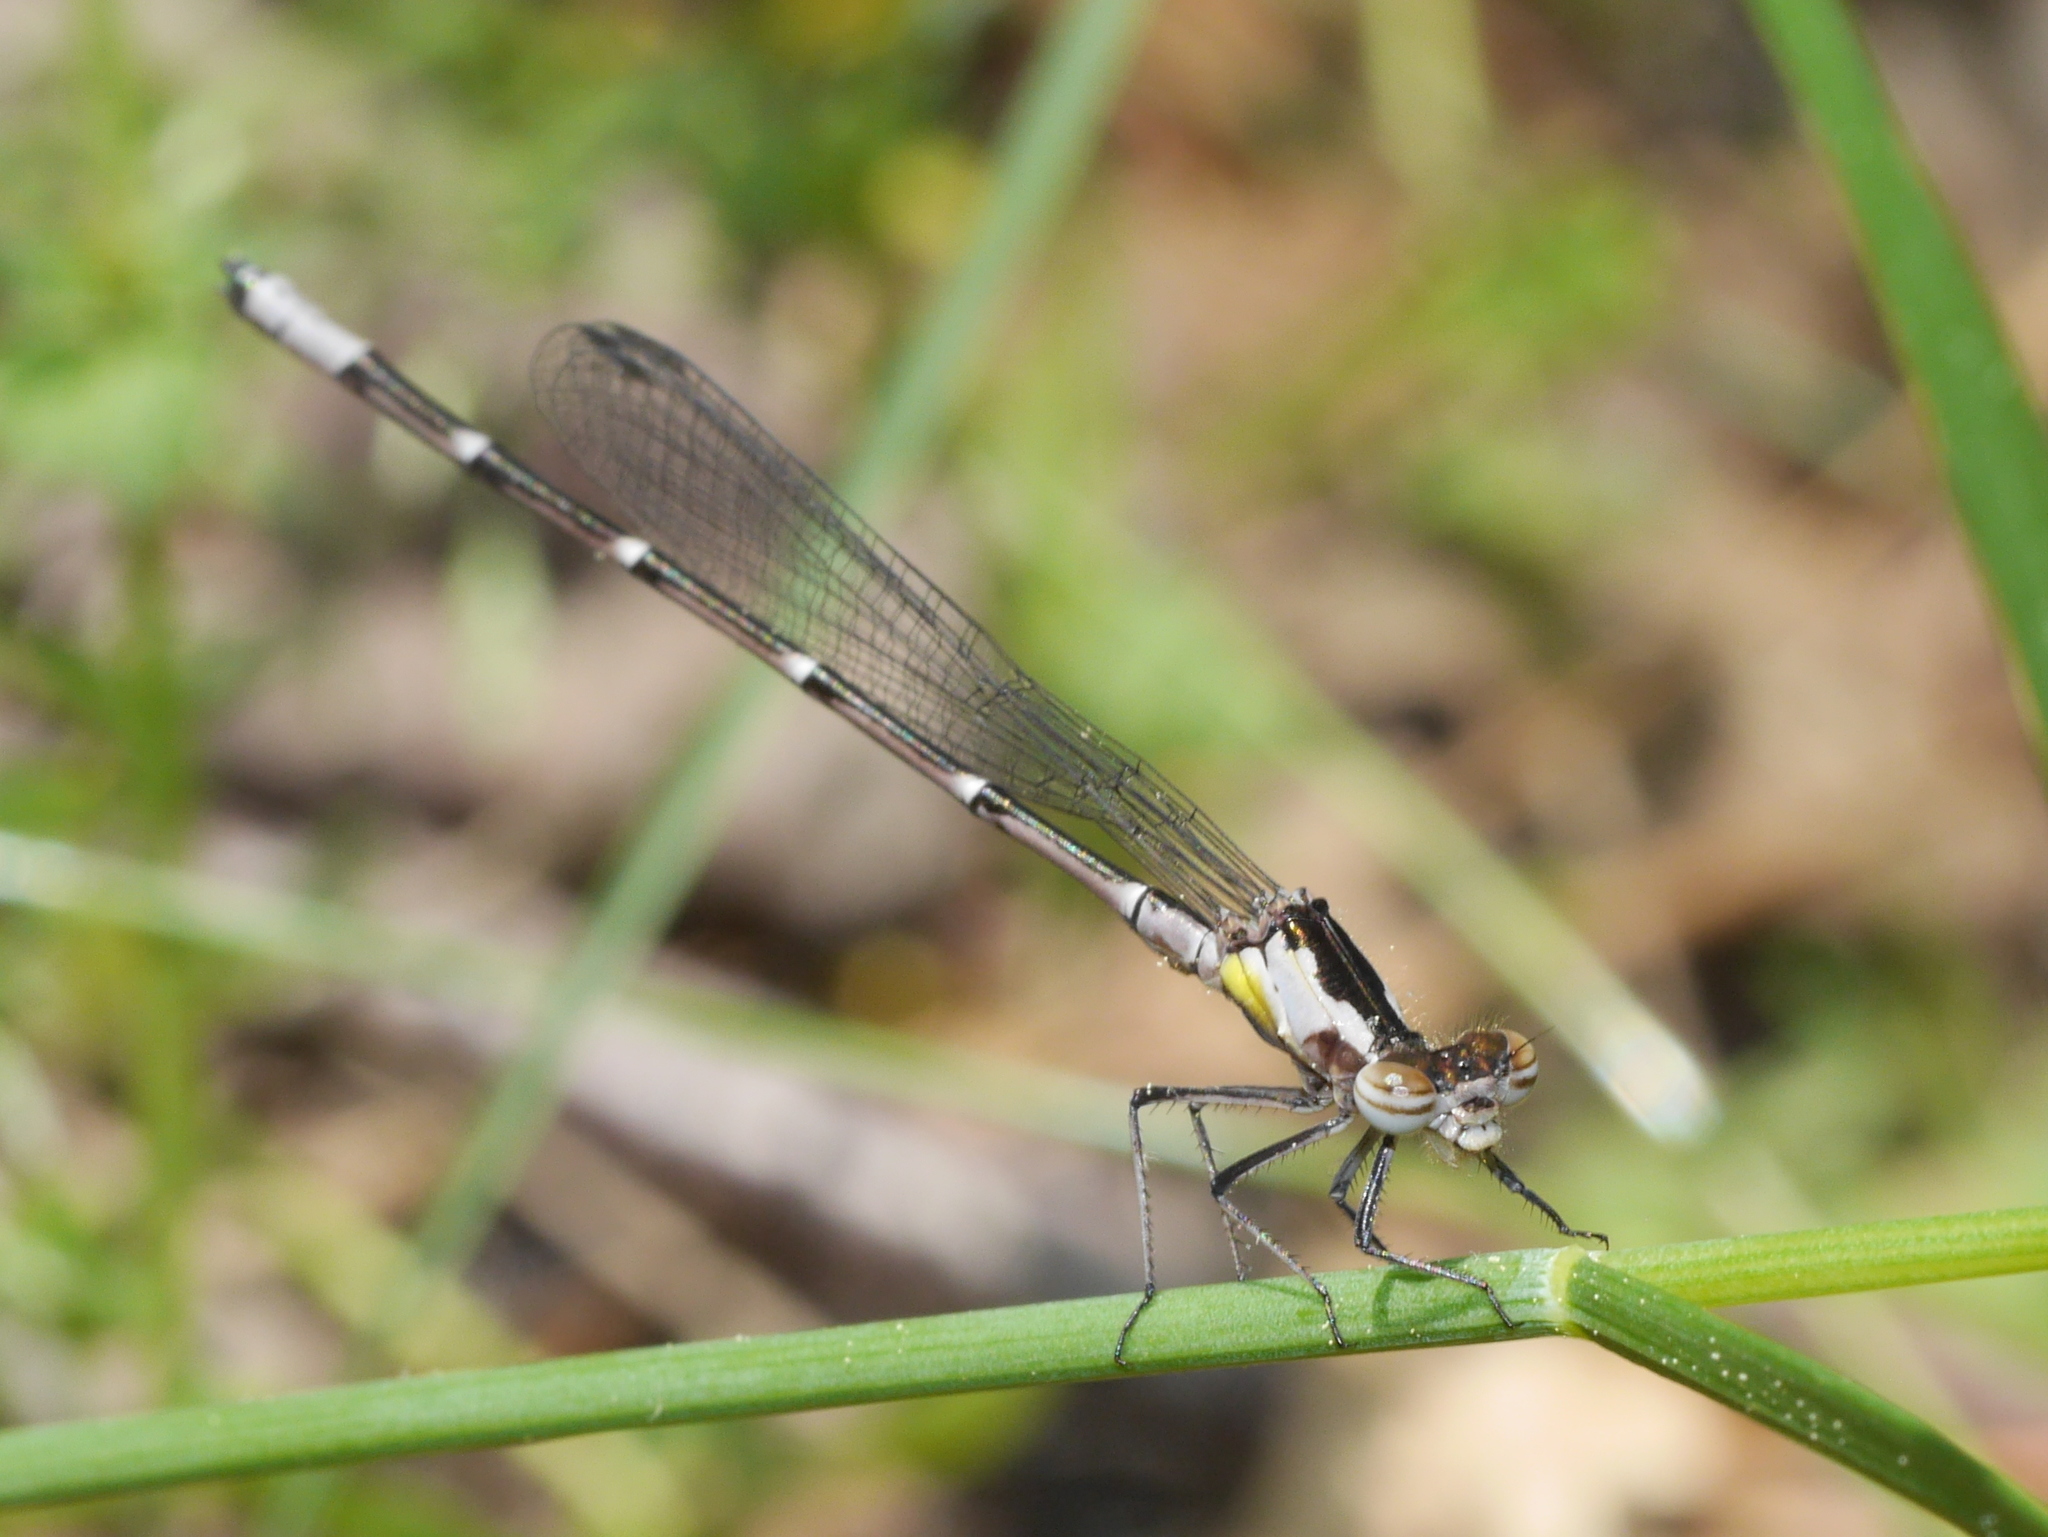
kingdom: Animalia
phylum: Arthropoda
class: Insecta
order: Odonata
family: Coenagrionidae
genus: Chromagrion
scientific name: Chromagrion conditum
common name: Aurora damsel
